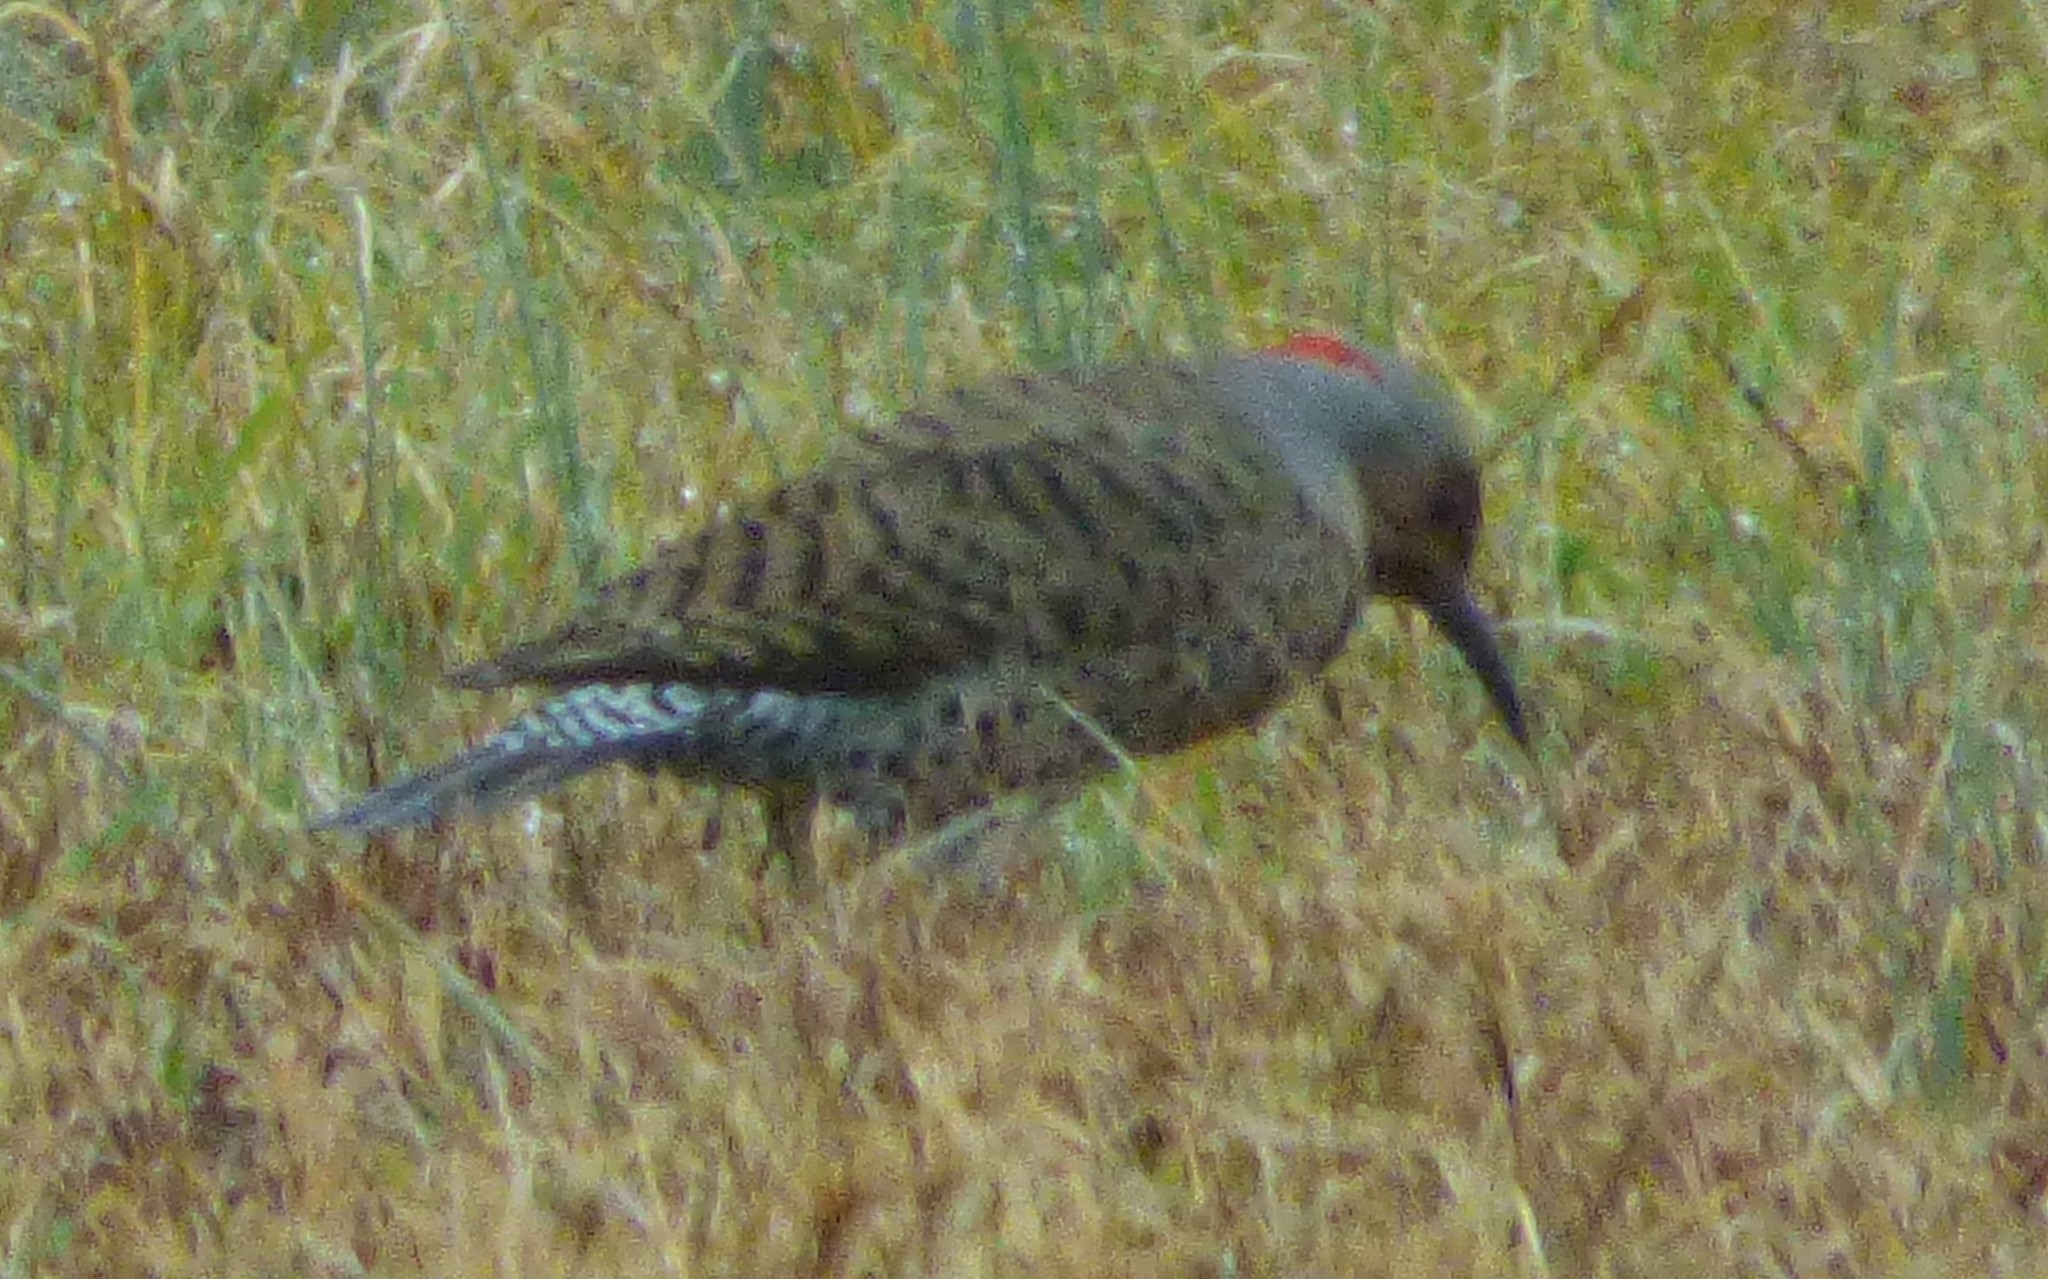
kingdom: Animalia
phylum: Chordata
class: Aves
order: Piciformes
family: Picidae
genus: Colaptes
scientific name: Colaptes auratus
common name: Northern flicker
